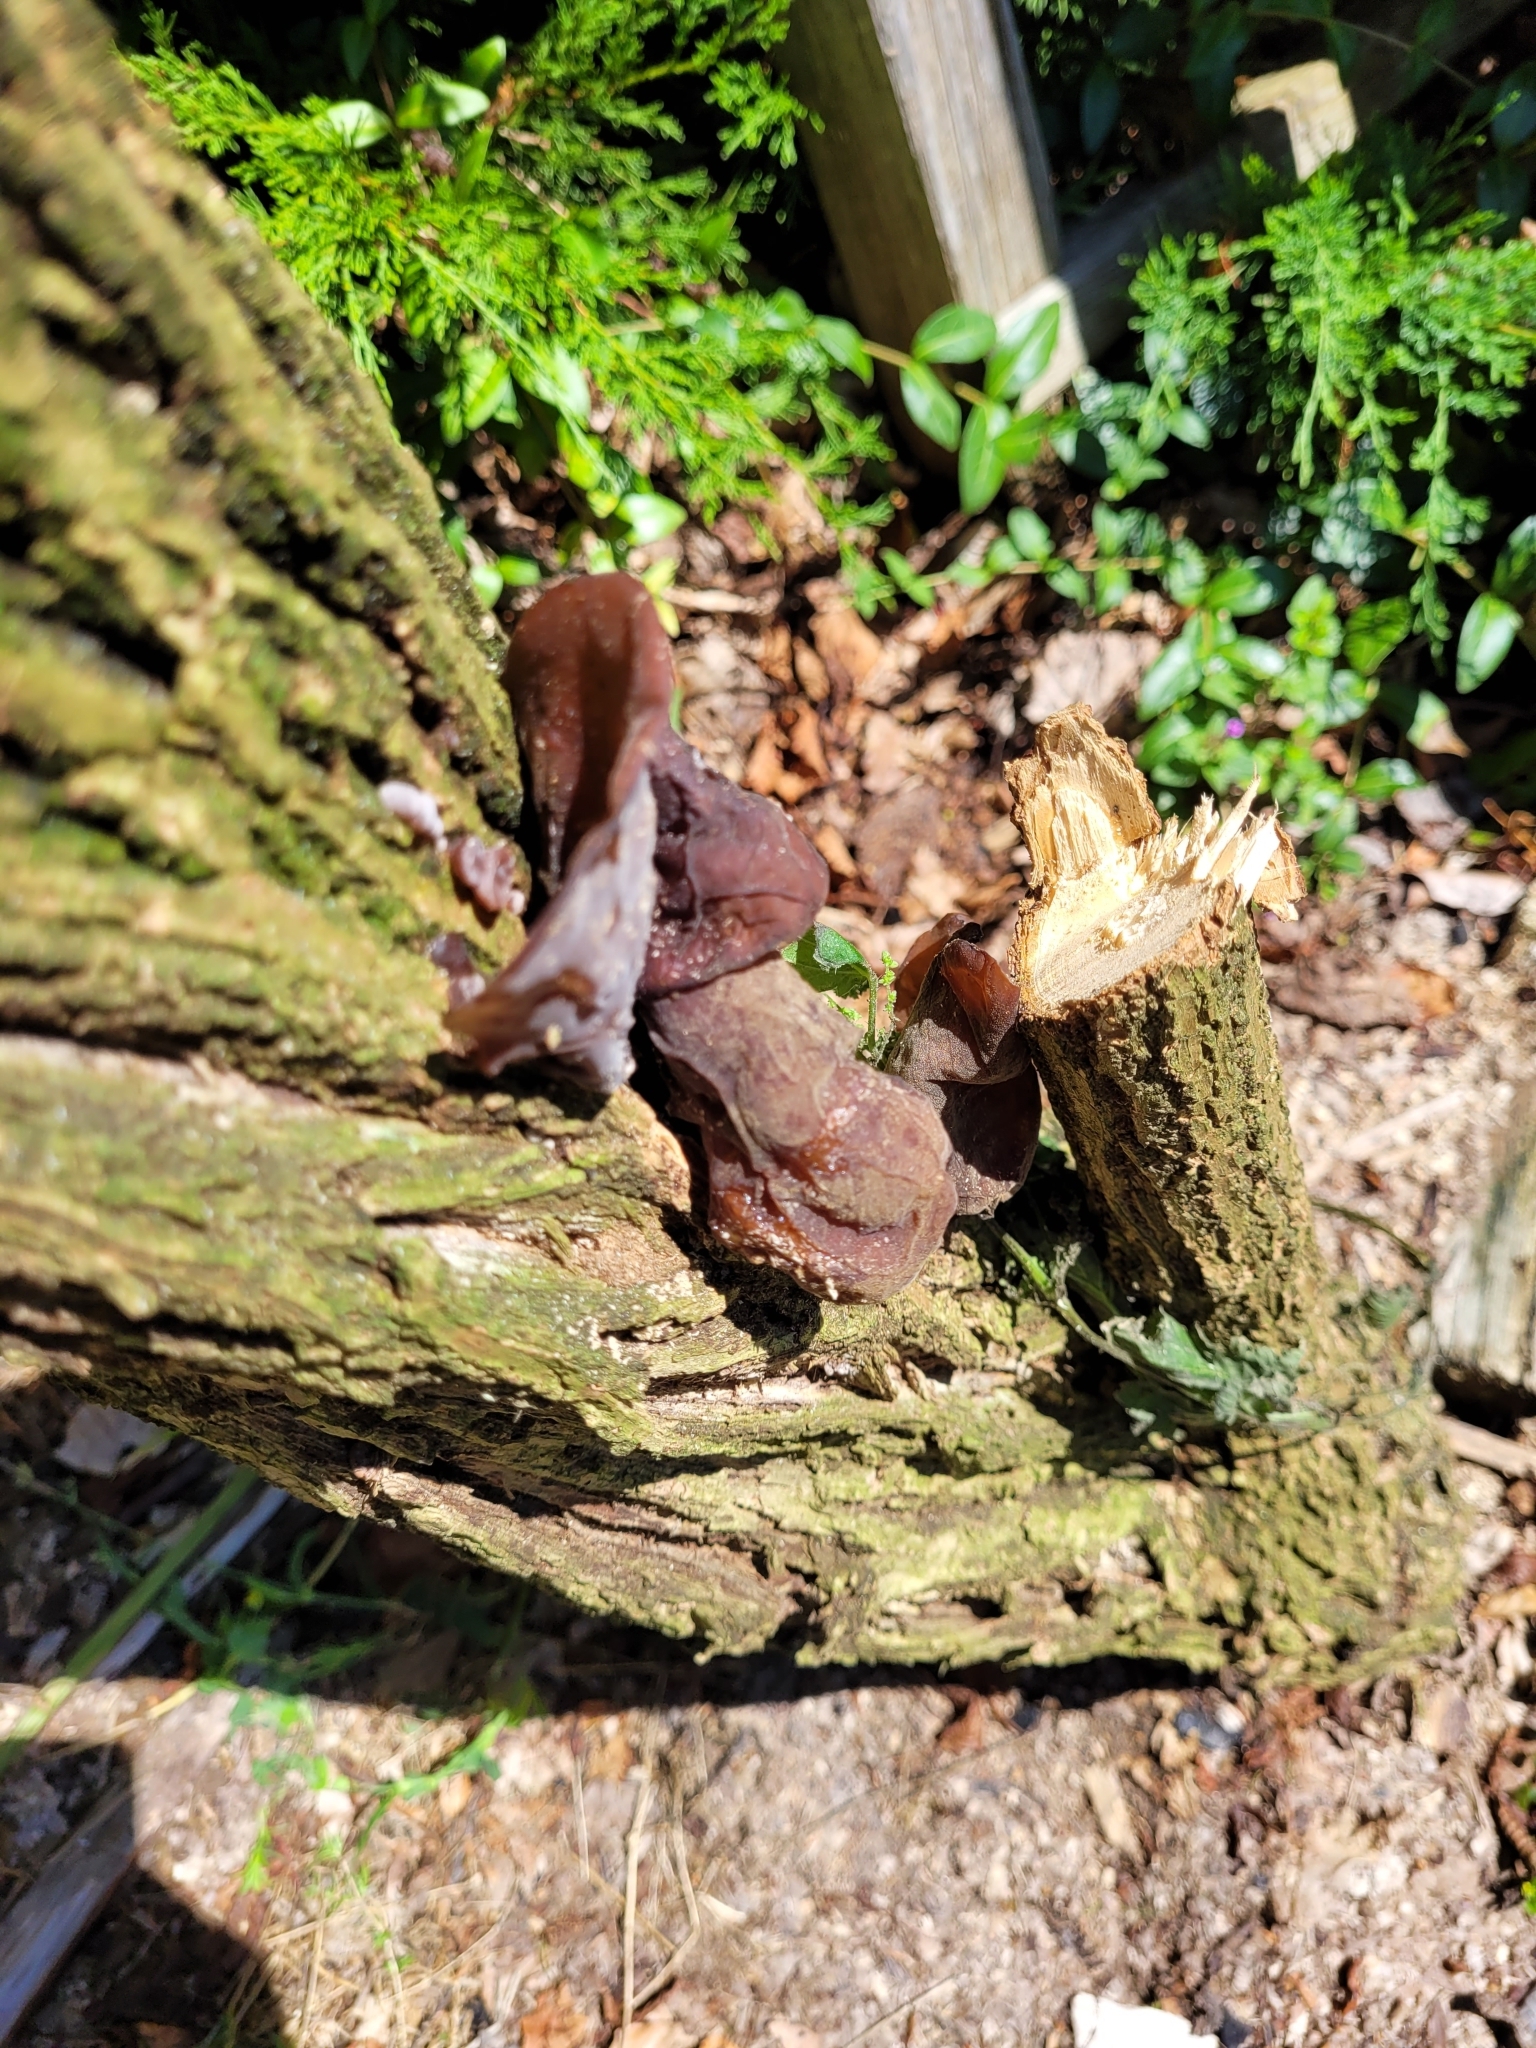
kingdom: Fungi
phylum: Basidiomycota
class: Agaricomycetes
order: Auriculariales
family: Auriculariaceae
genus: Auricularia
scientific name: Auricularia auricula-judae
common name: Jelly ear
